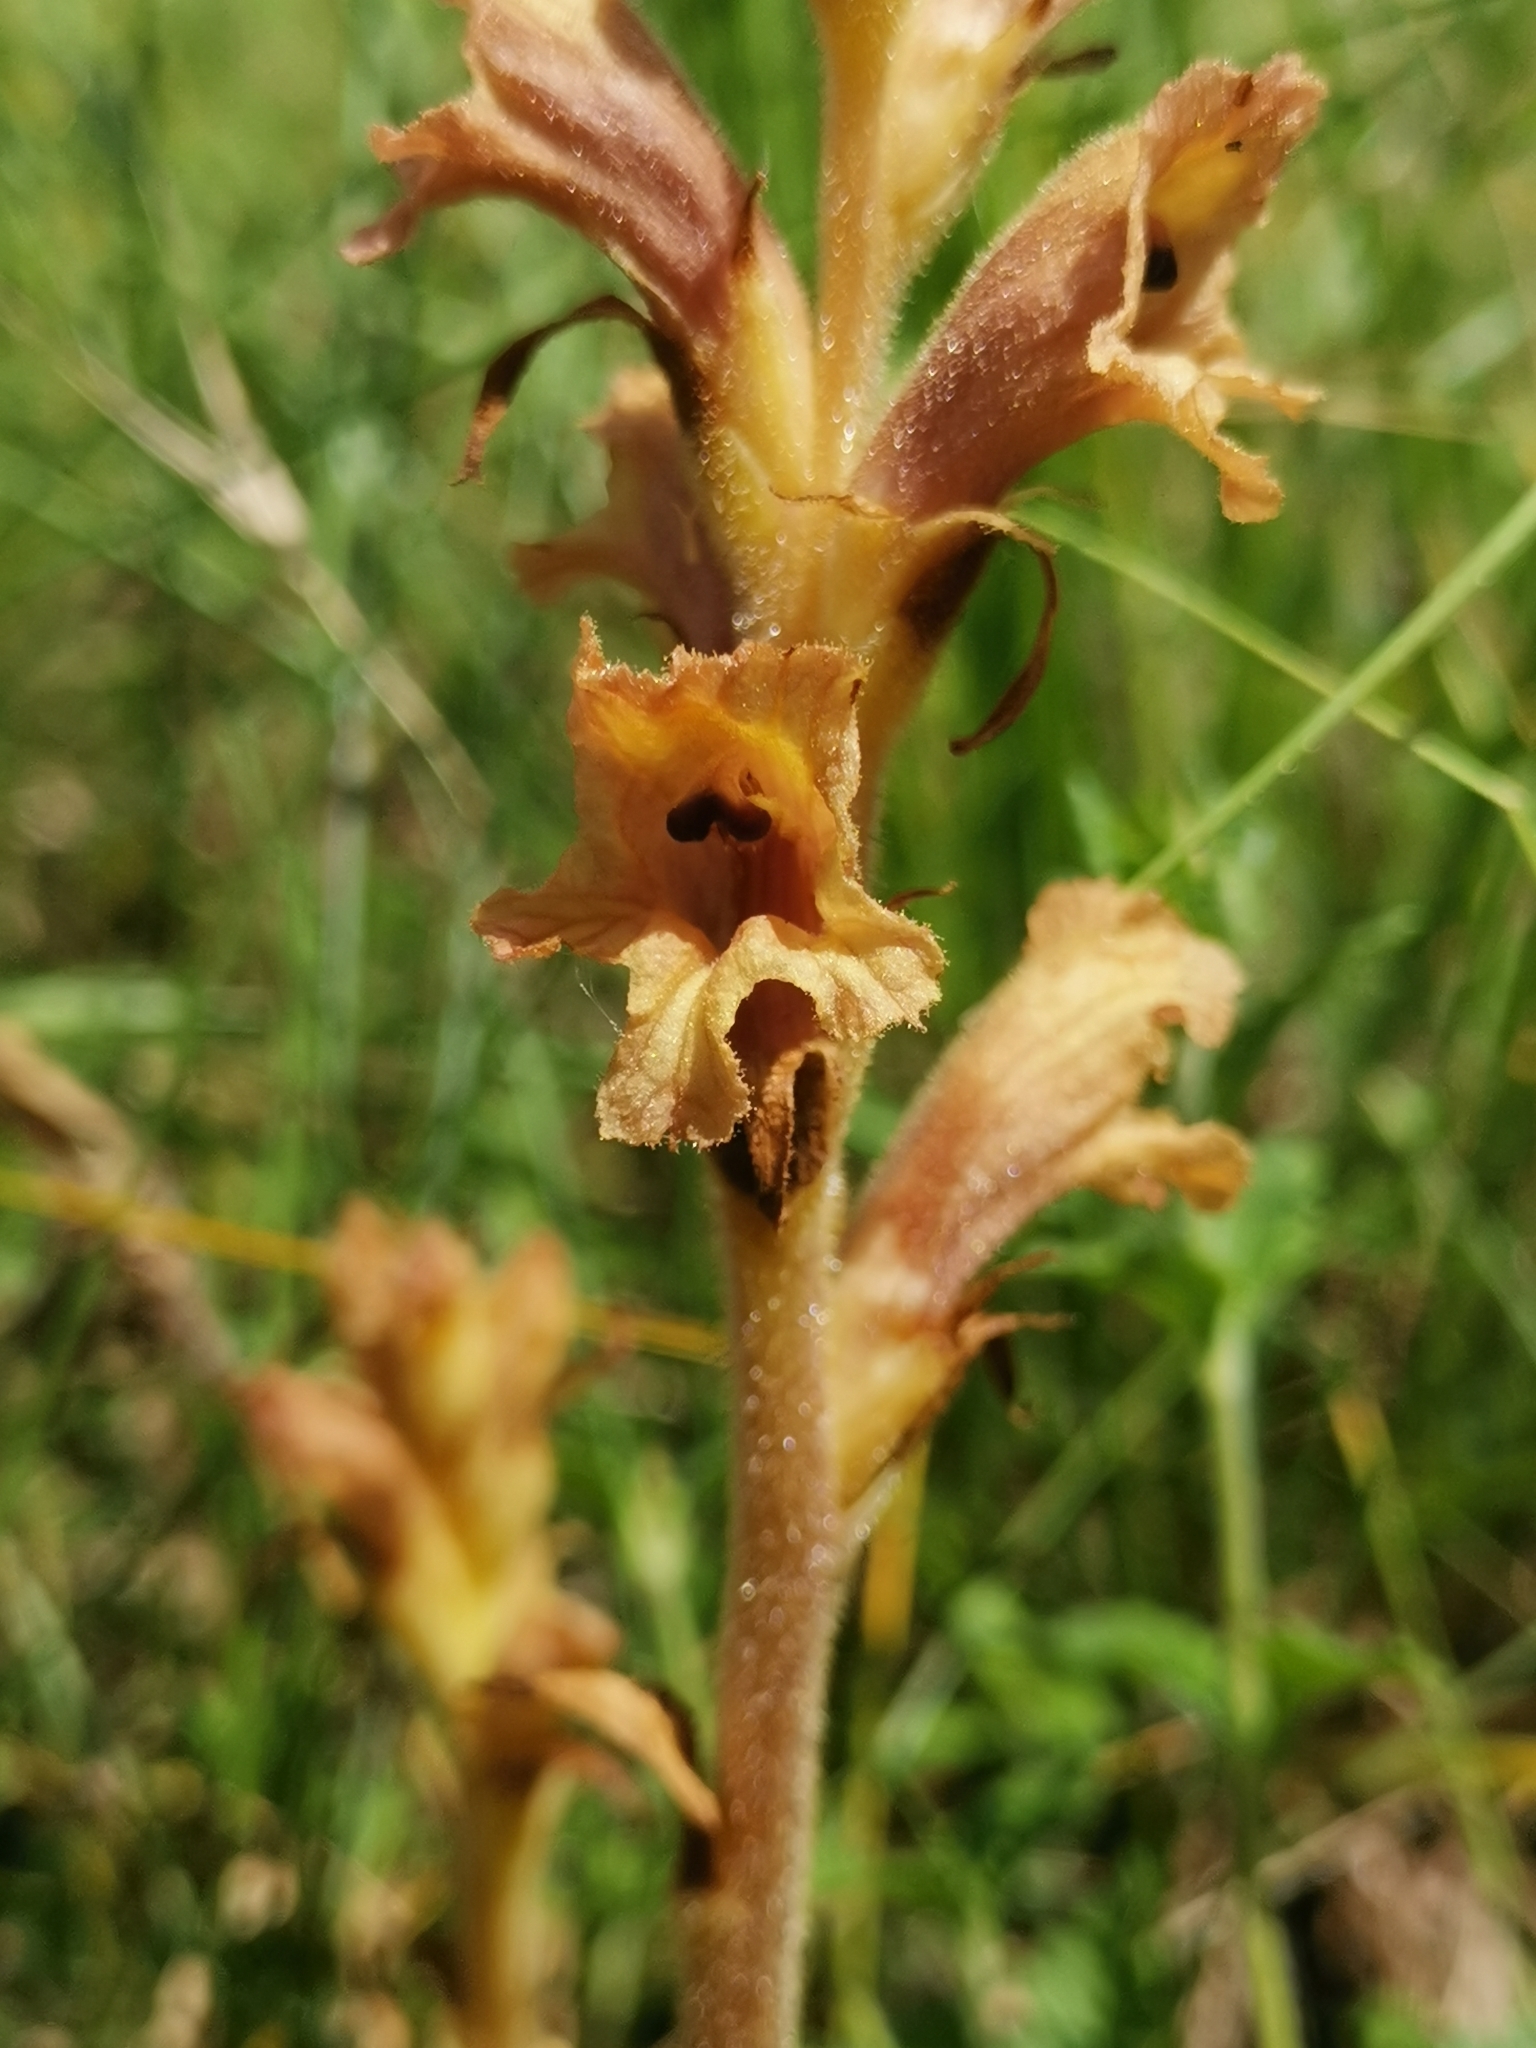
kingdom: Plantae
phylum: Tracheophyta
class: Magnoliopsida
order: Lamiales
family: Orobanchaceae
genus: Orobanche
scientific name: Orobanche teucrii
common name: Germander broomrape
